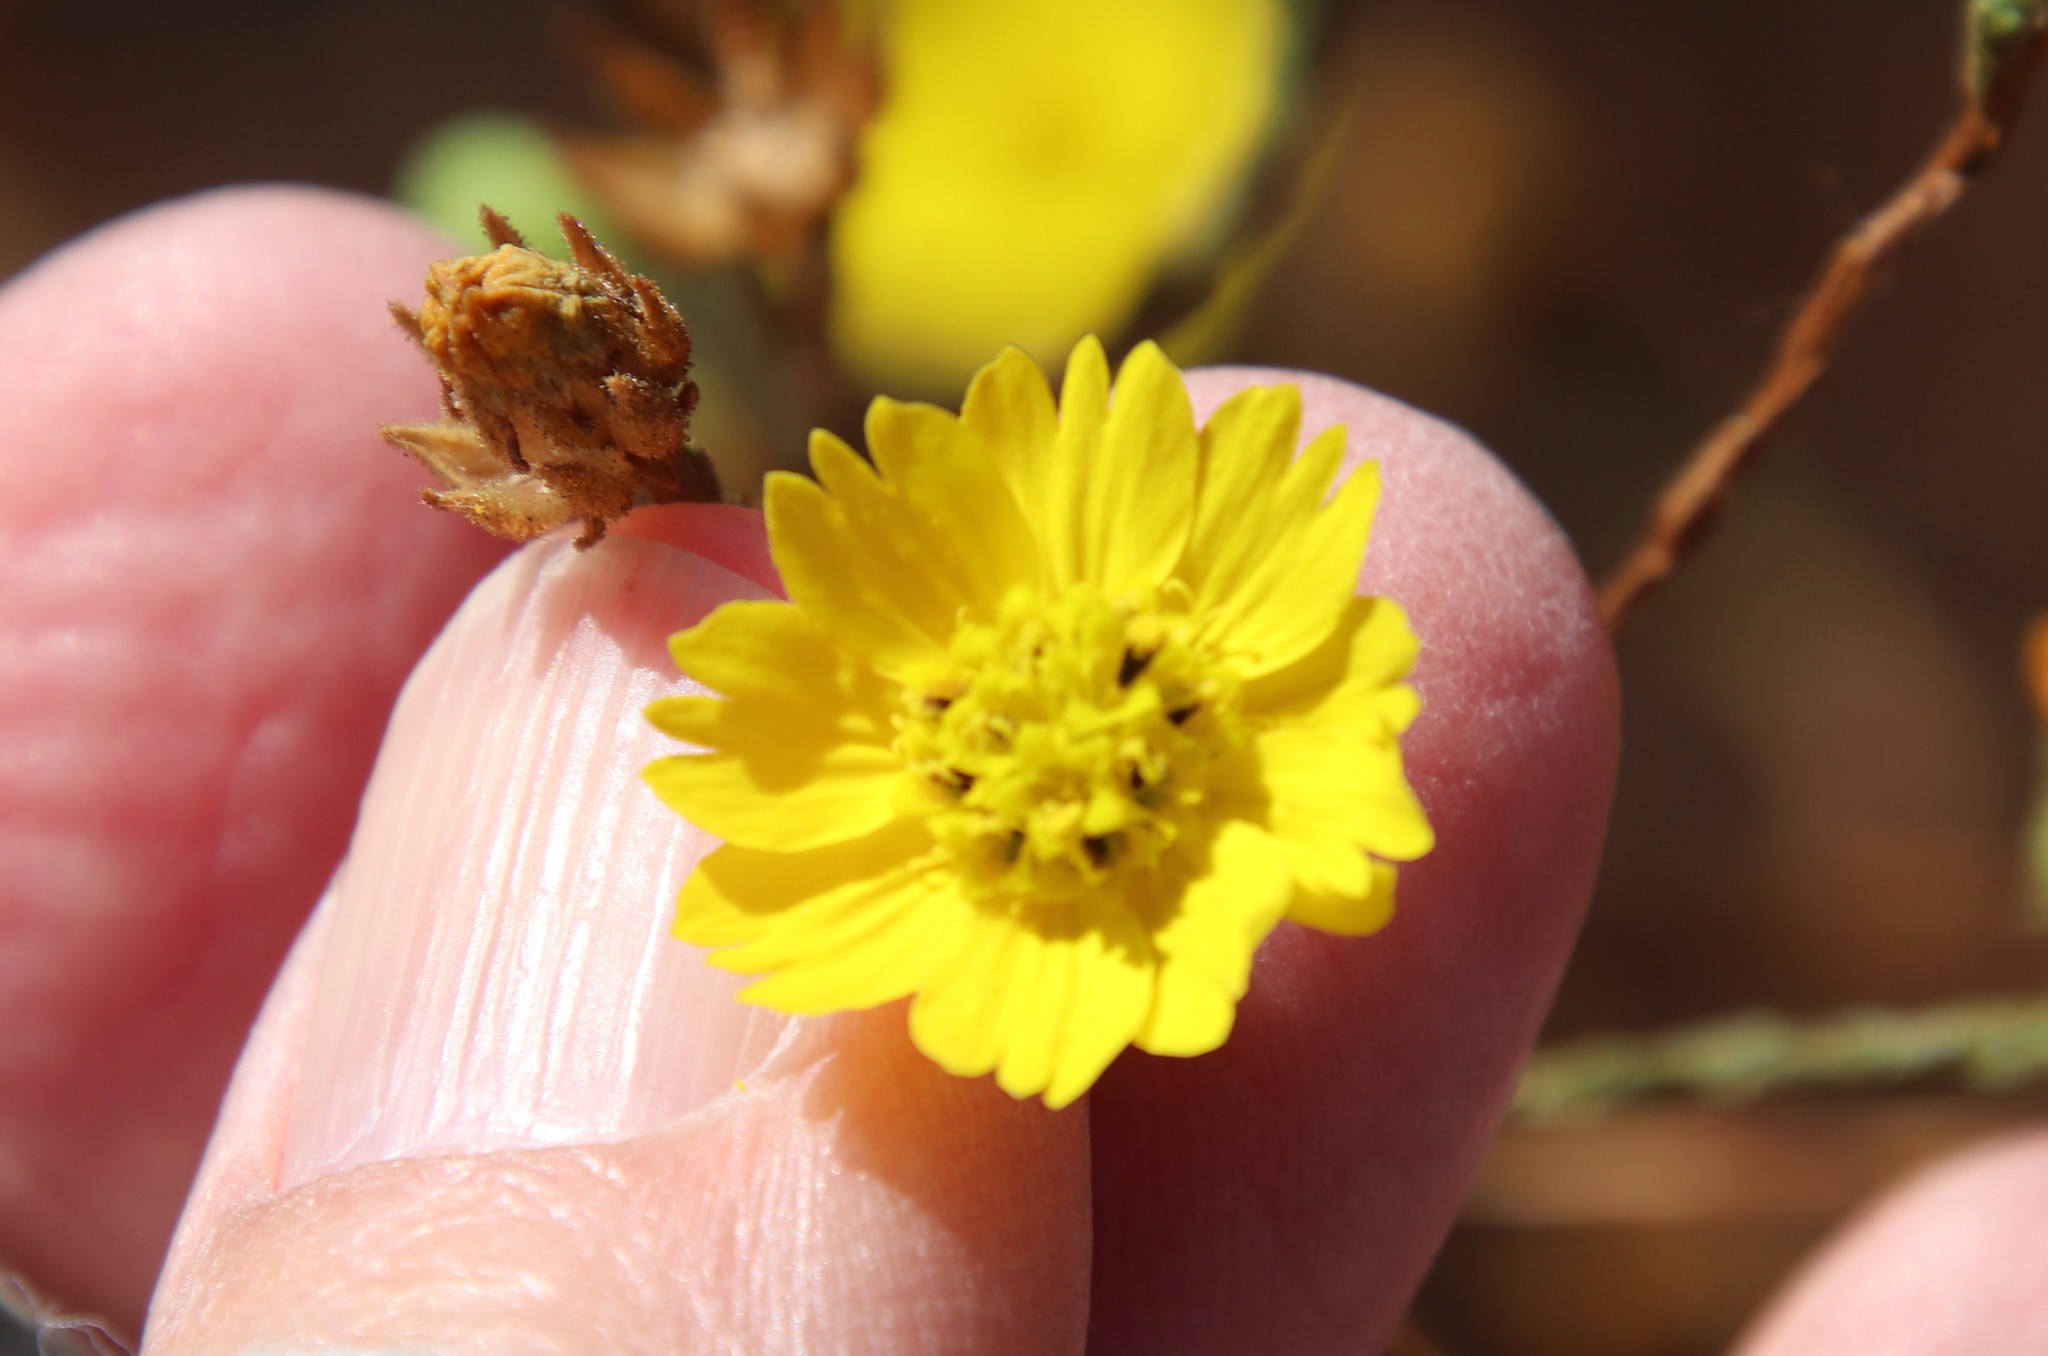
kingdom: Plantae
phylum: Tracheophyta
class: Magnoliopsida
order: Asterales
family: Asteraceae
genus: Deinandra
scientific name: Deinandra paniculata
